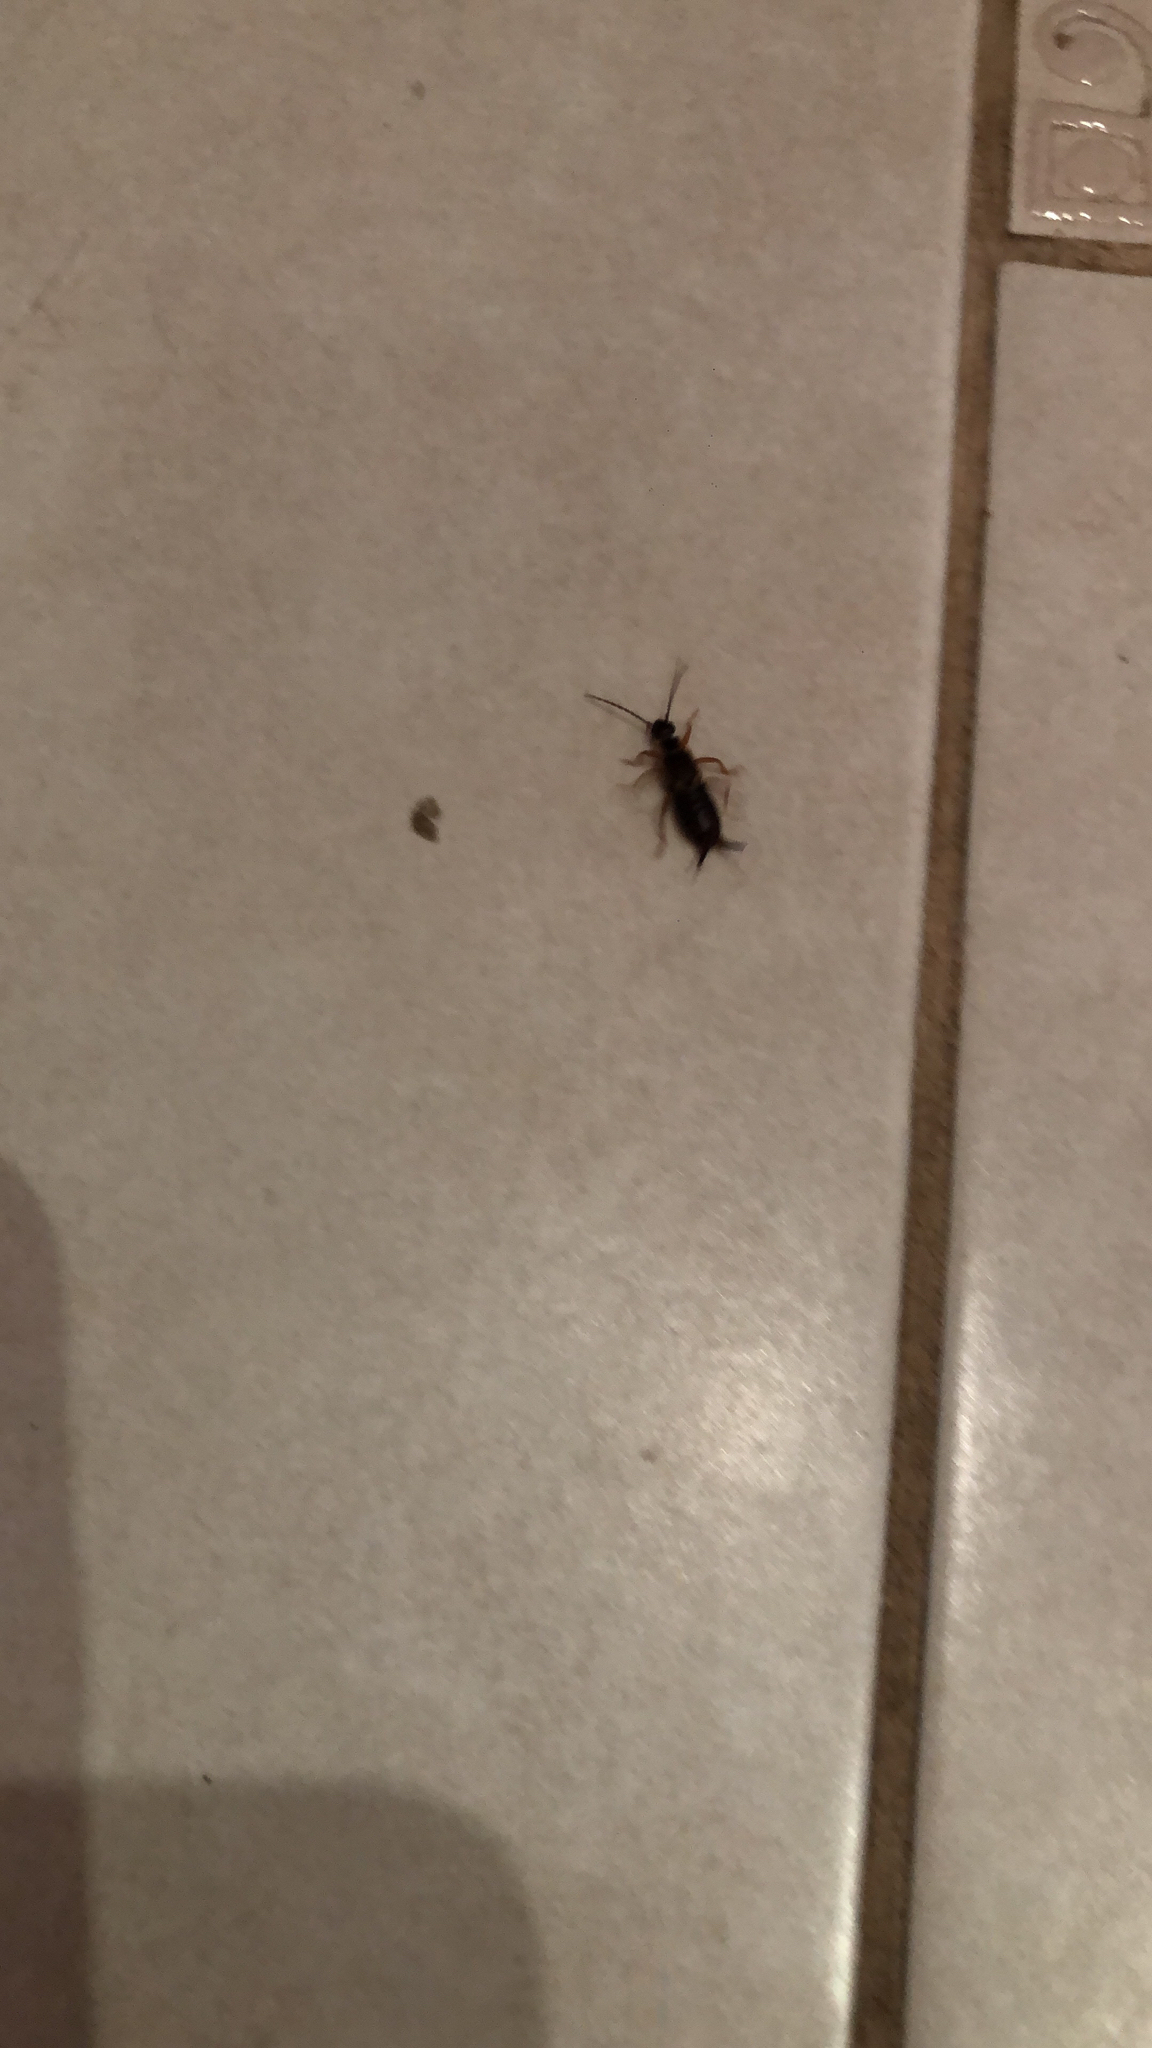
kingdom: Animalia
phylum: Arthropoda
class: Insecta
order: Dermaptera
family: Forficulidae
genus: Forficula
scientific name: Forficula
